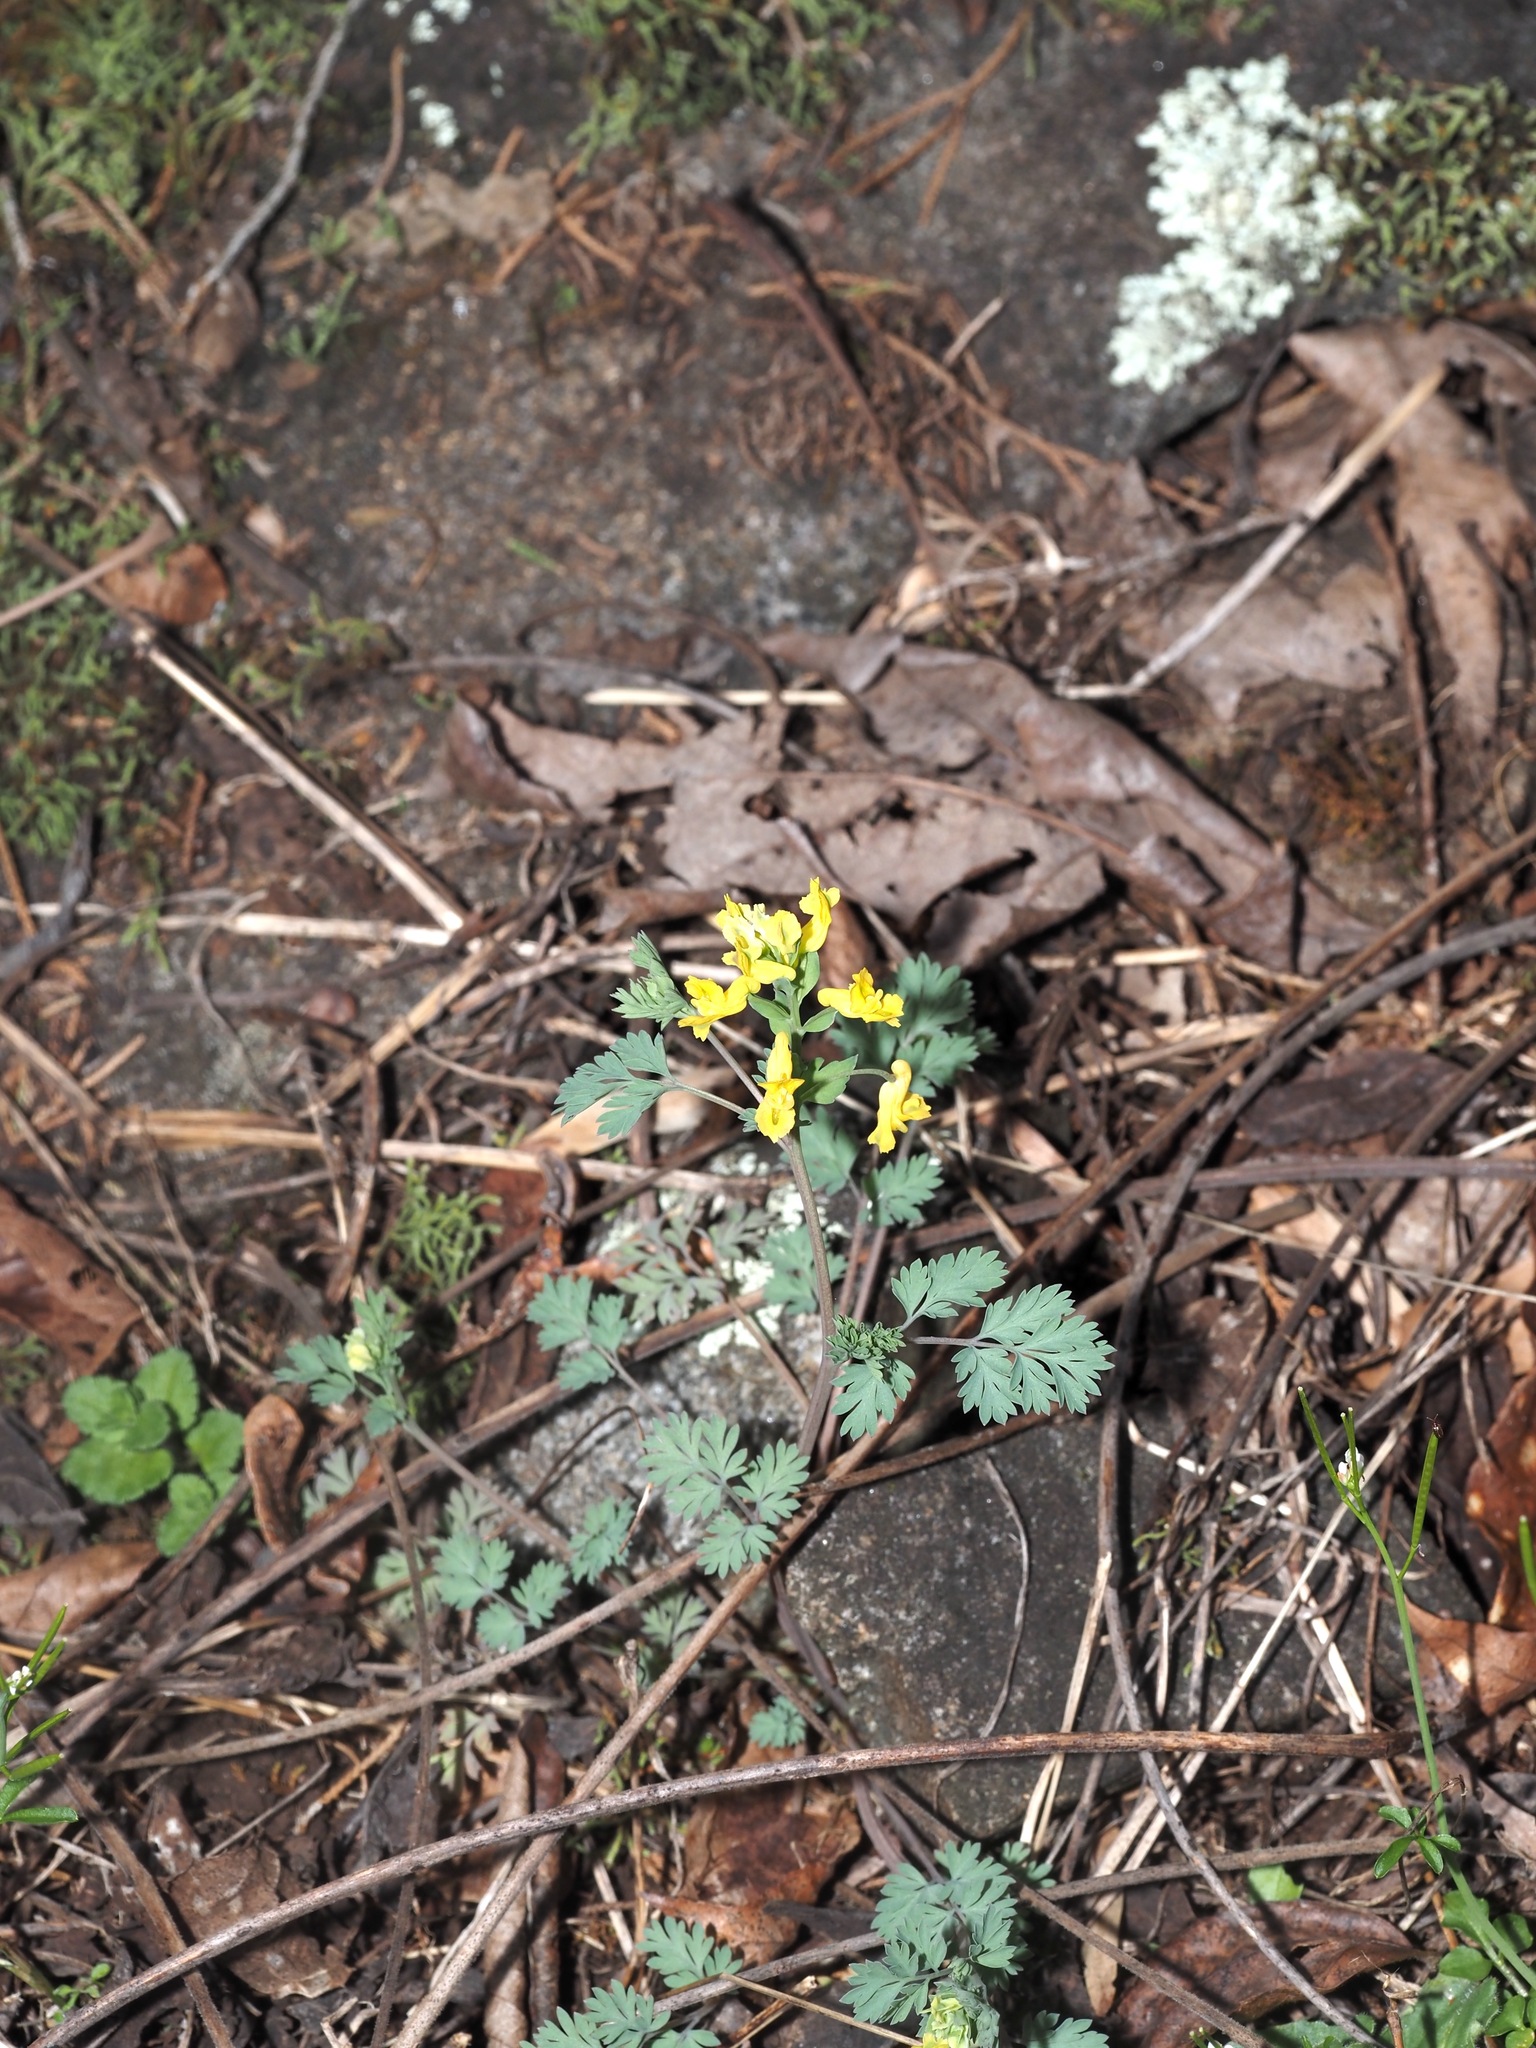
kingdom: Plantae
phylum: Tracheophyta
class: Magnoliopsida
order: Ranunculales
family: Papaveraceae
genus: Corydalis
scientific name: Corydalis flavula
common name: Yellow corydalis
